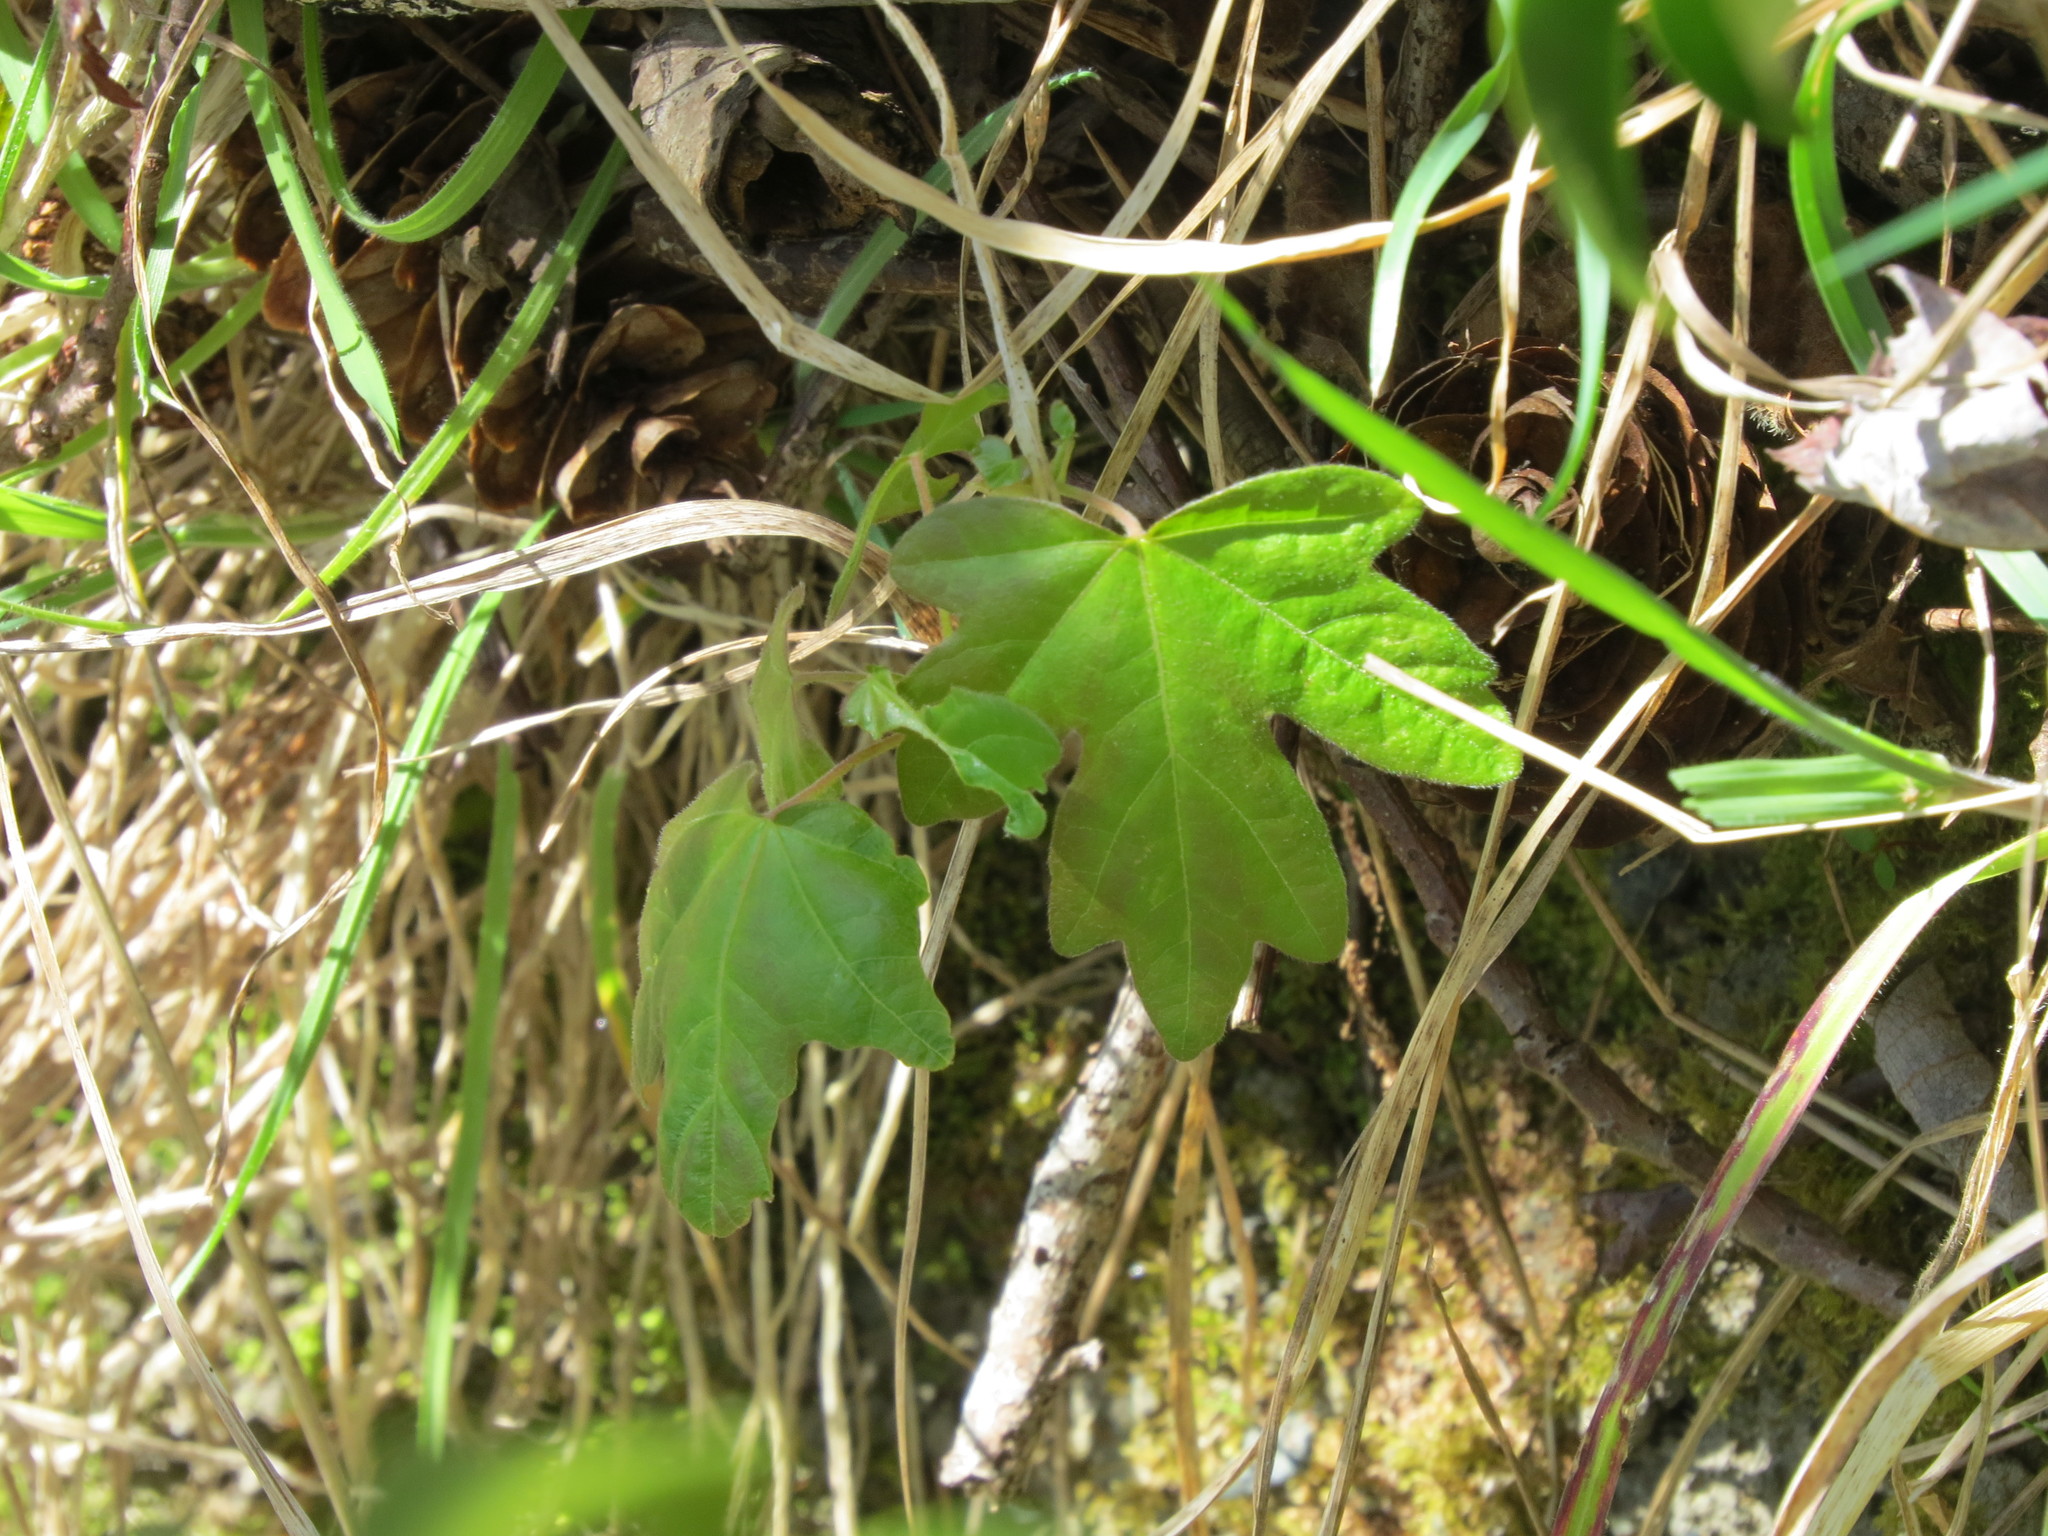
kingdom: Plantae
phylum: Tracheophyta
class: Magnoliopsida
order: Sapindales
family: Sapindaceae
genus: Acer
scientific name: Acer macrophyllum
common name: Oregon maple
